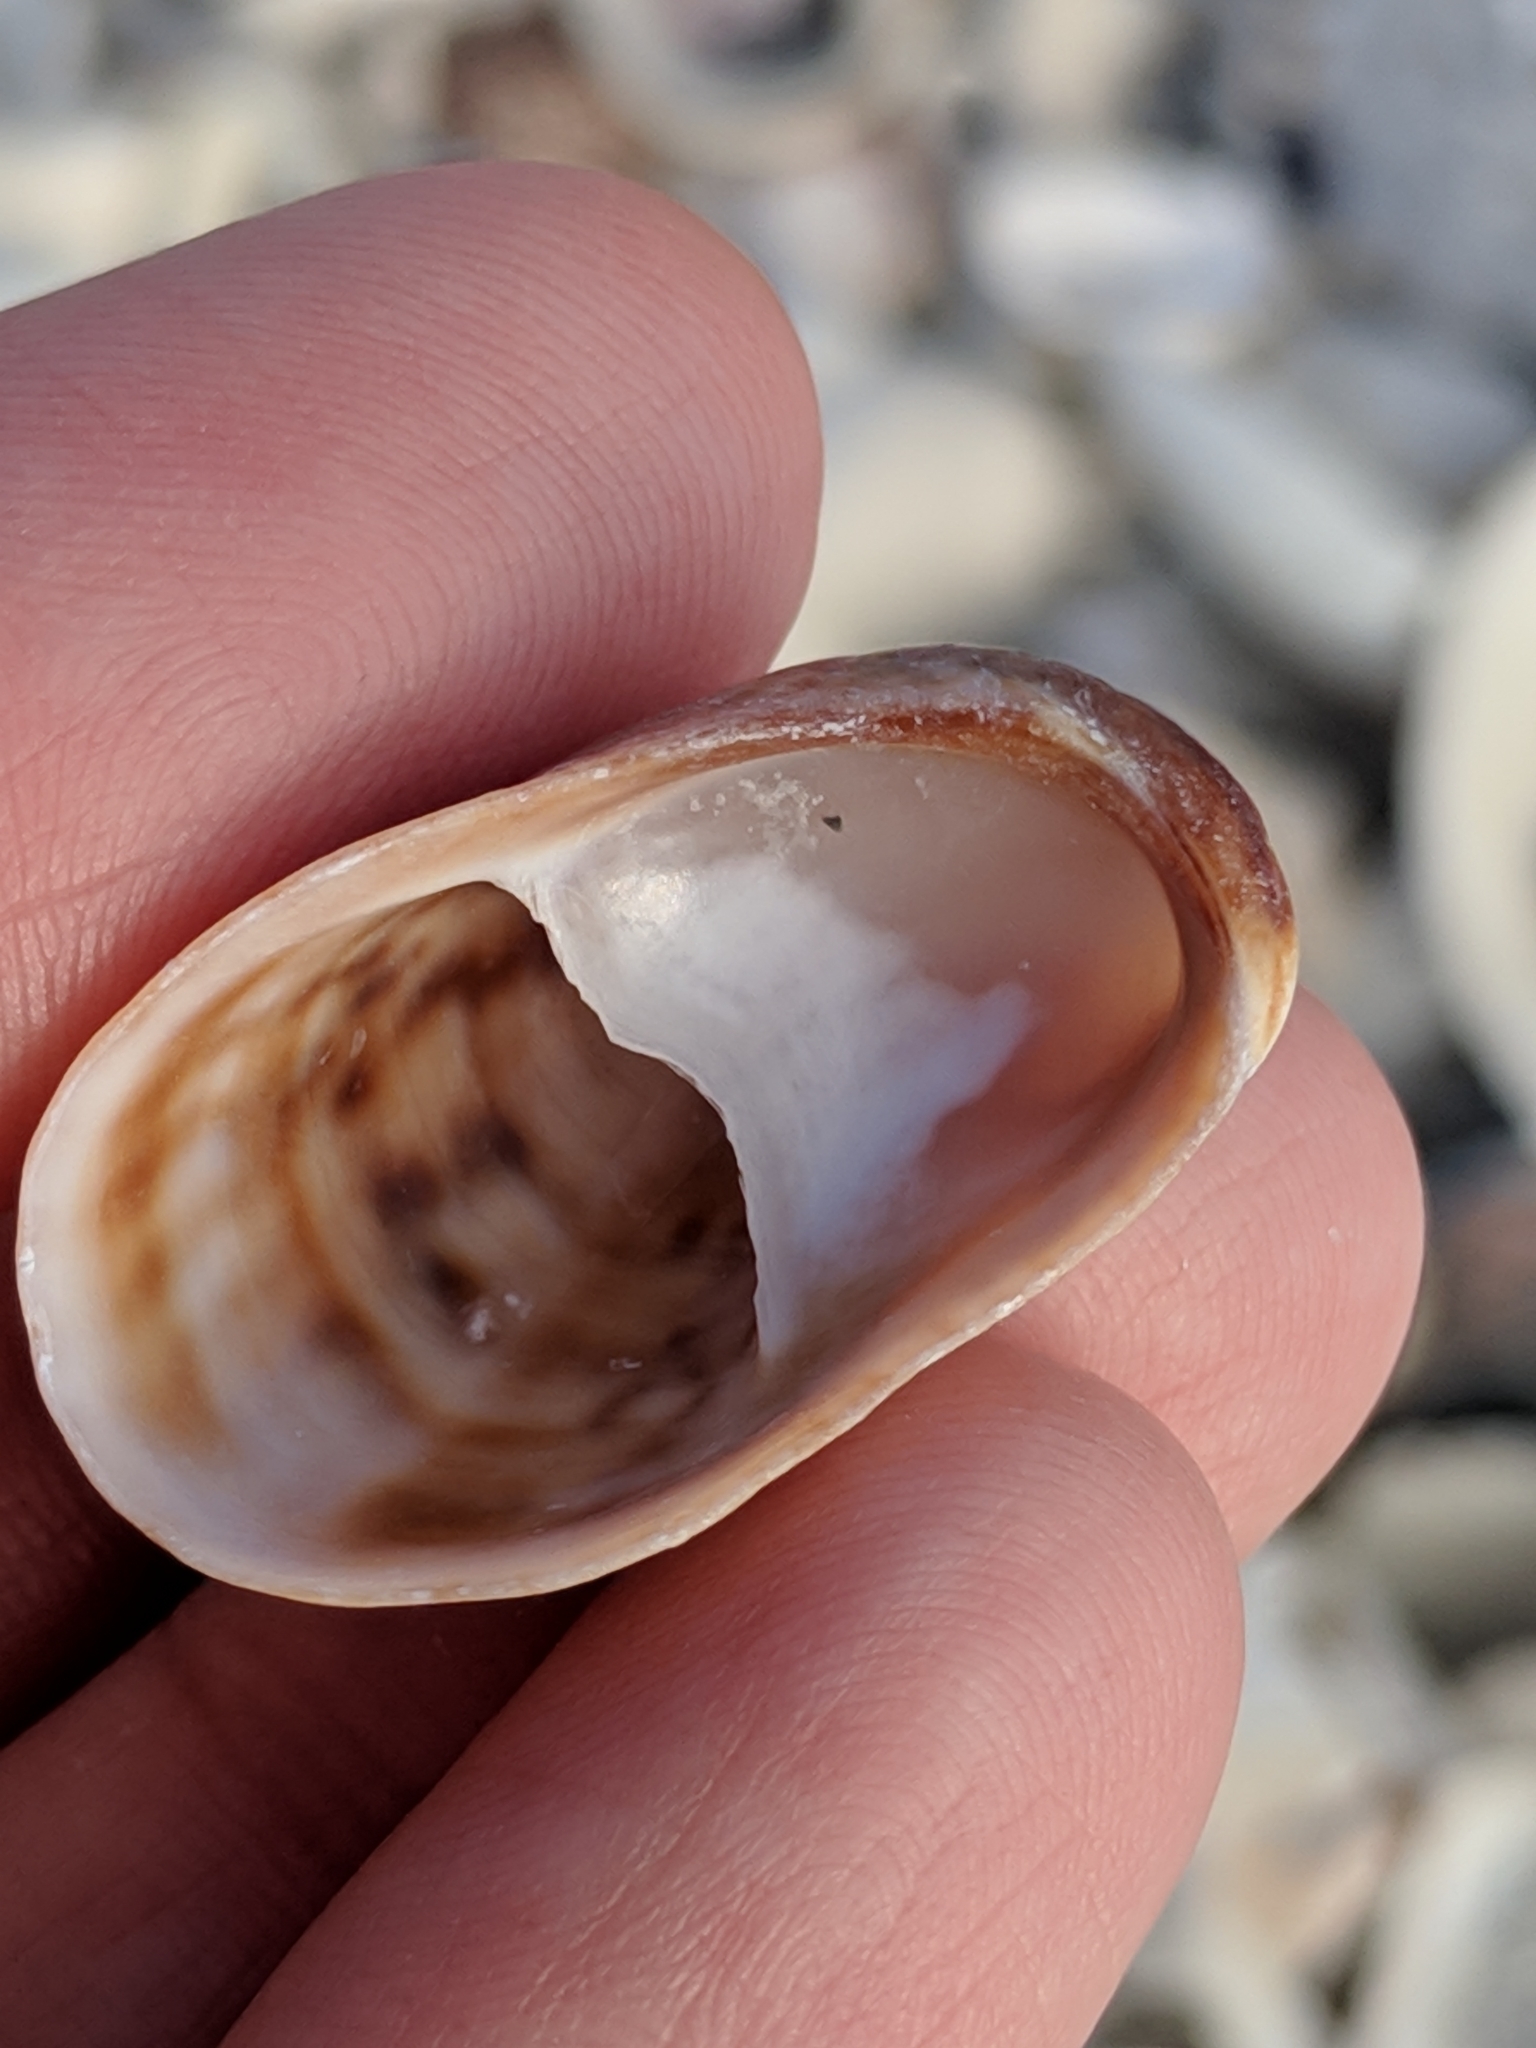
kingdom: Animalia
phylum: Mollusca
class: Gastropoda
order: Littorinimorpha
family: Calyptraeidae
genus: Crepidula
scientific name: Crepidula fornicata
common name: Slipper limpet
